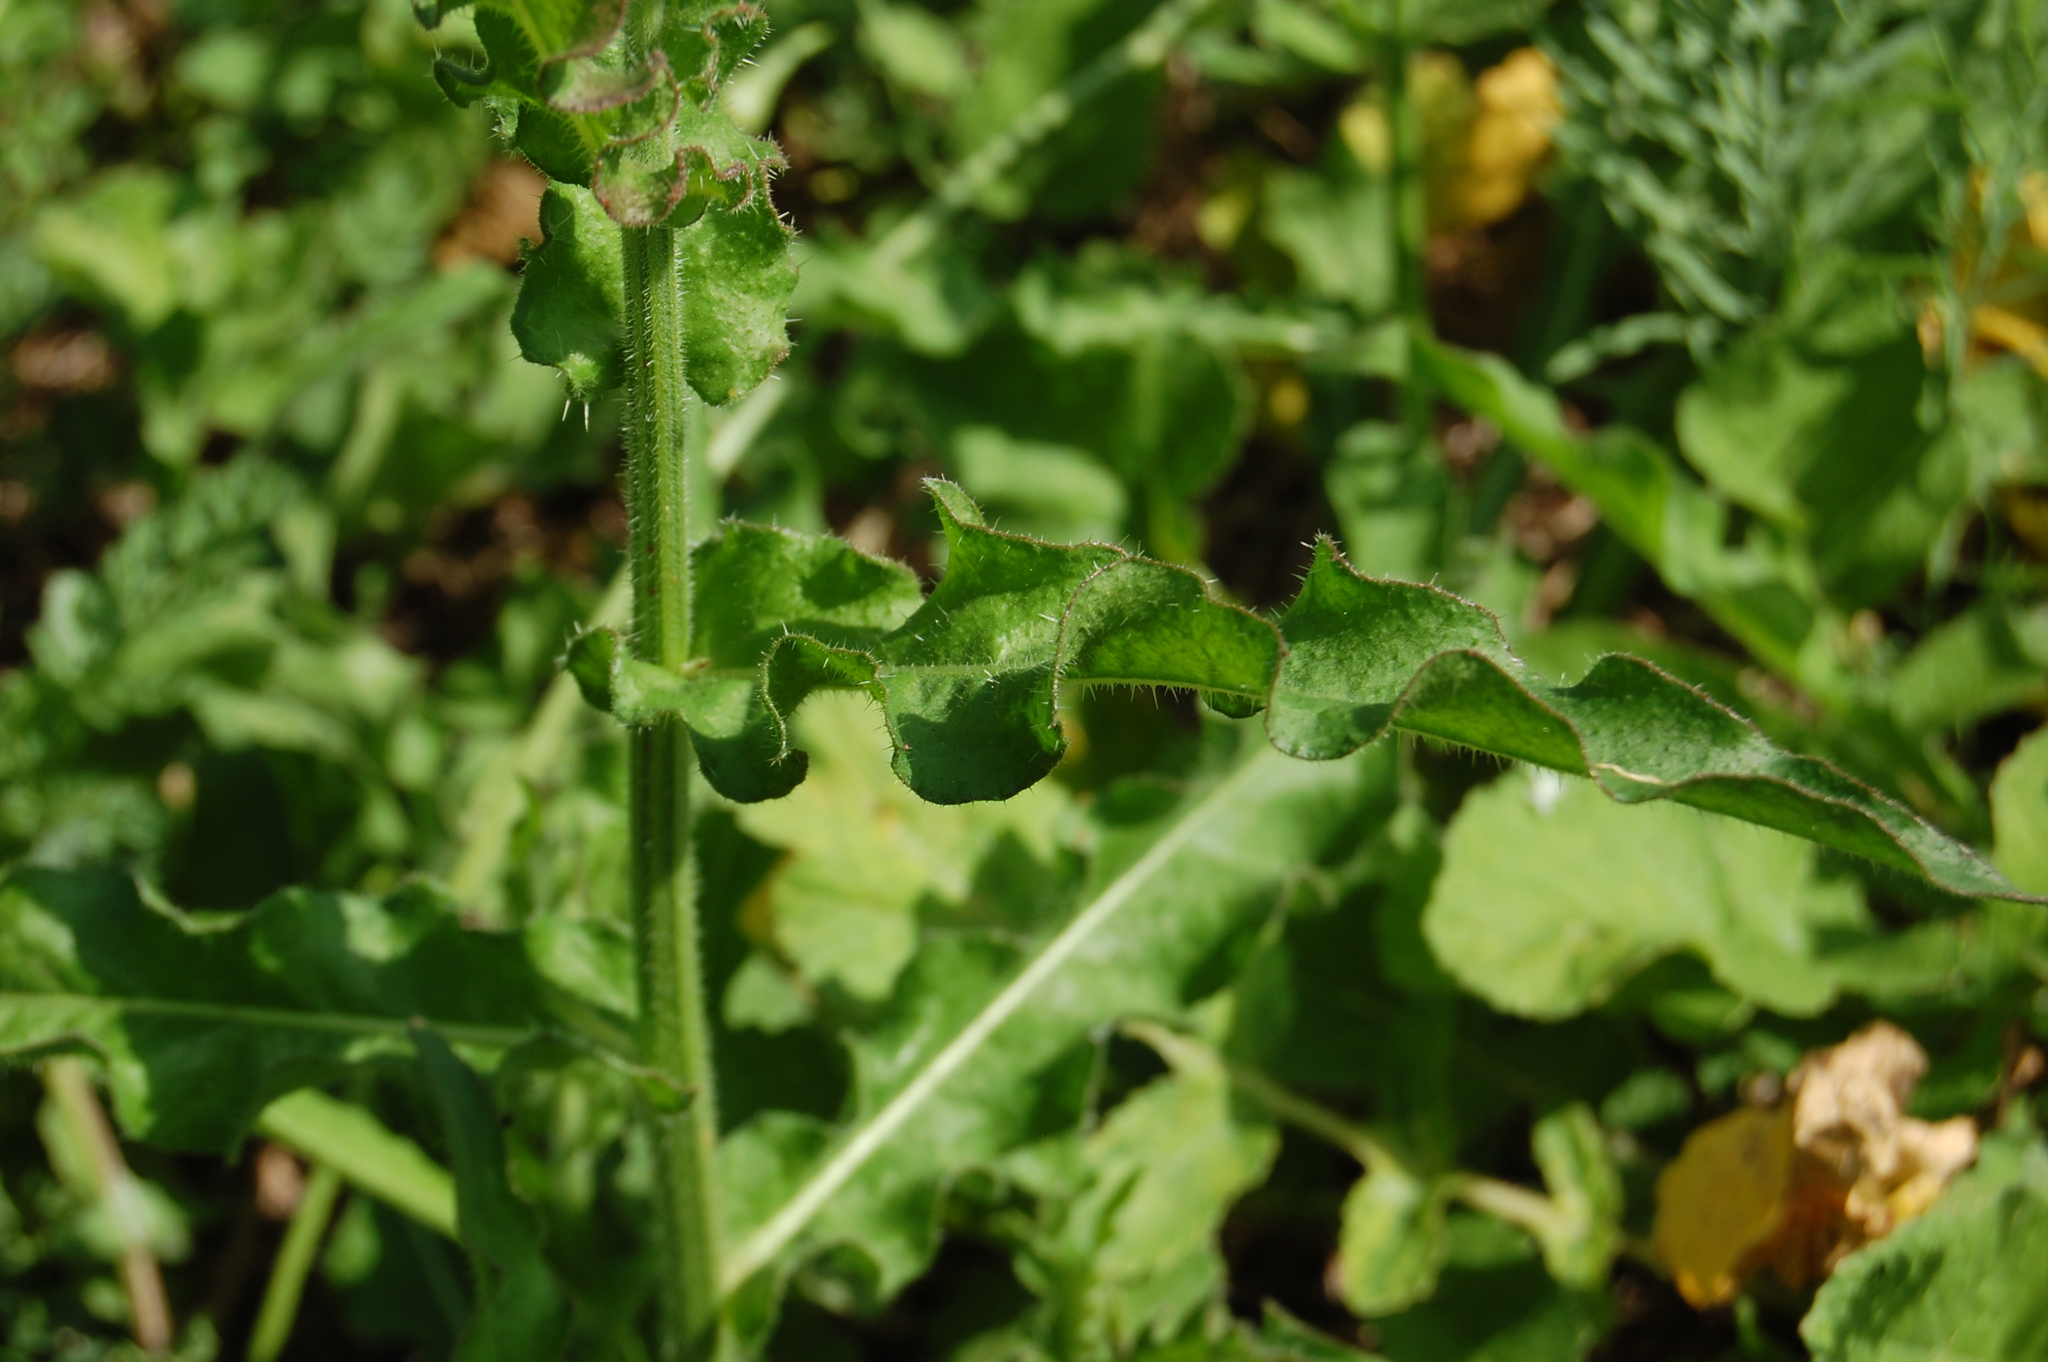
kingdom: Plantae
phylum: Tracheophyta
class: Magnoliopsida
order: Asterales
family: Asteraceae
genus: Picris
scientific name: Picris hieracioides
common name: Hawkweed oxtongue
